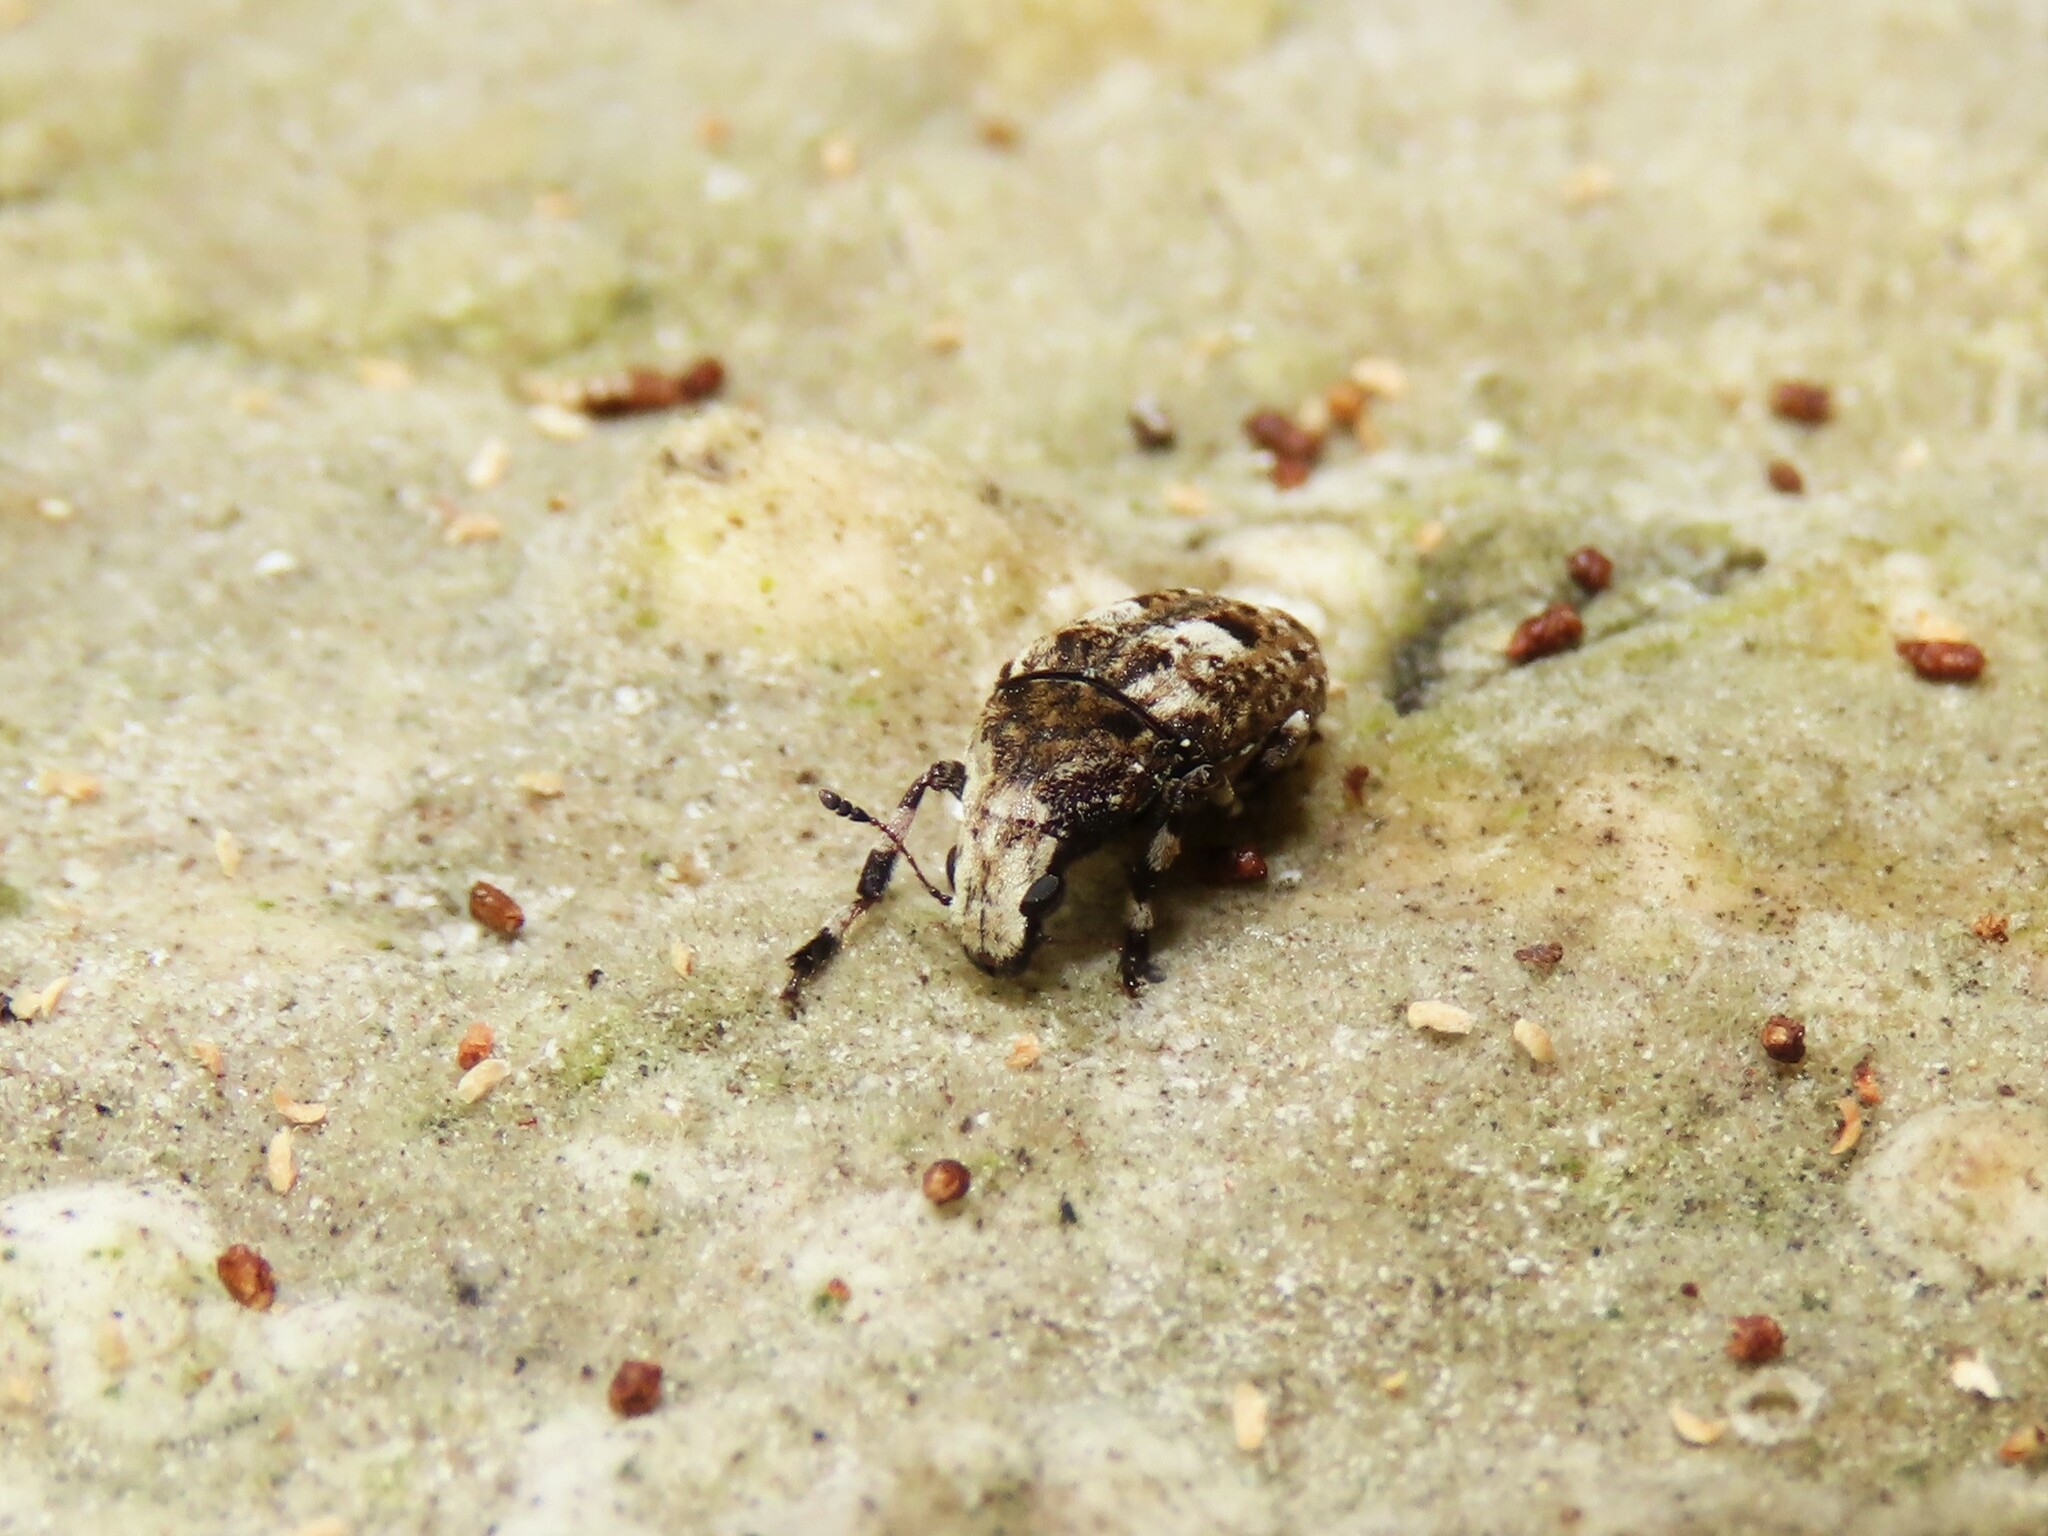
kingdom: Animalia
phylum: Arthropoda
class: Insecta
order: Coleoptera
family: Anthribidae
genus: Euparius
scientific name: Euparius marmoreus
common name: Marbled fungus weevil
